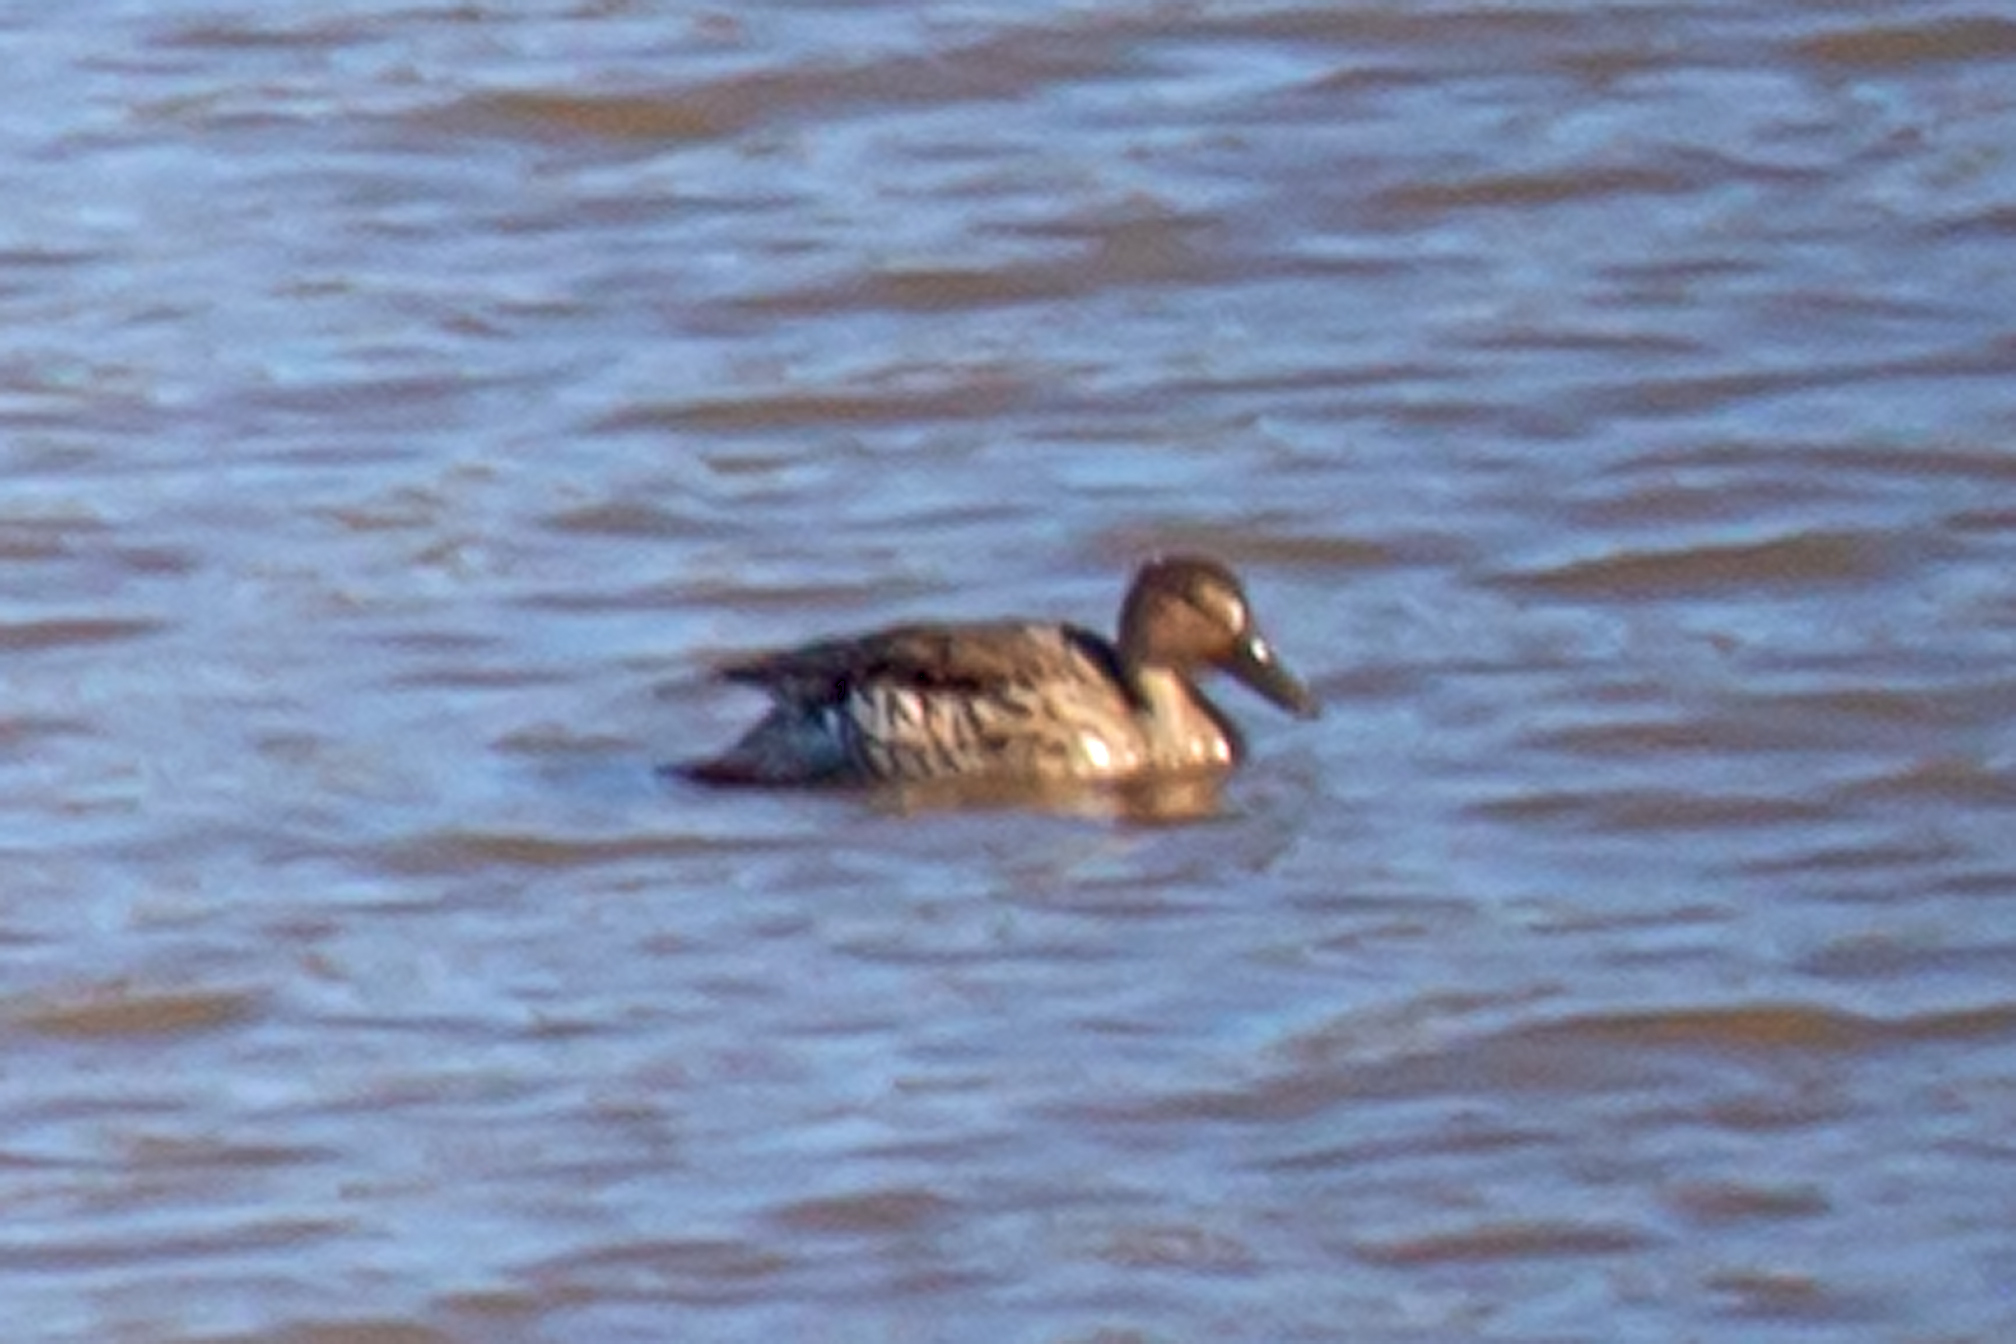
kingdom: Animalia
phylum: Chordata
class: Aves
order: Anseriformes
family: Anatidae
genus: Anas
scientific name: Anas crecca
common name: Eurasian teal
